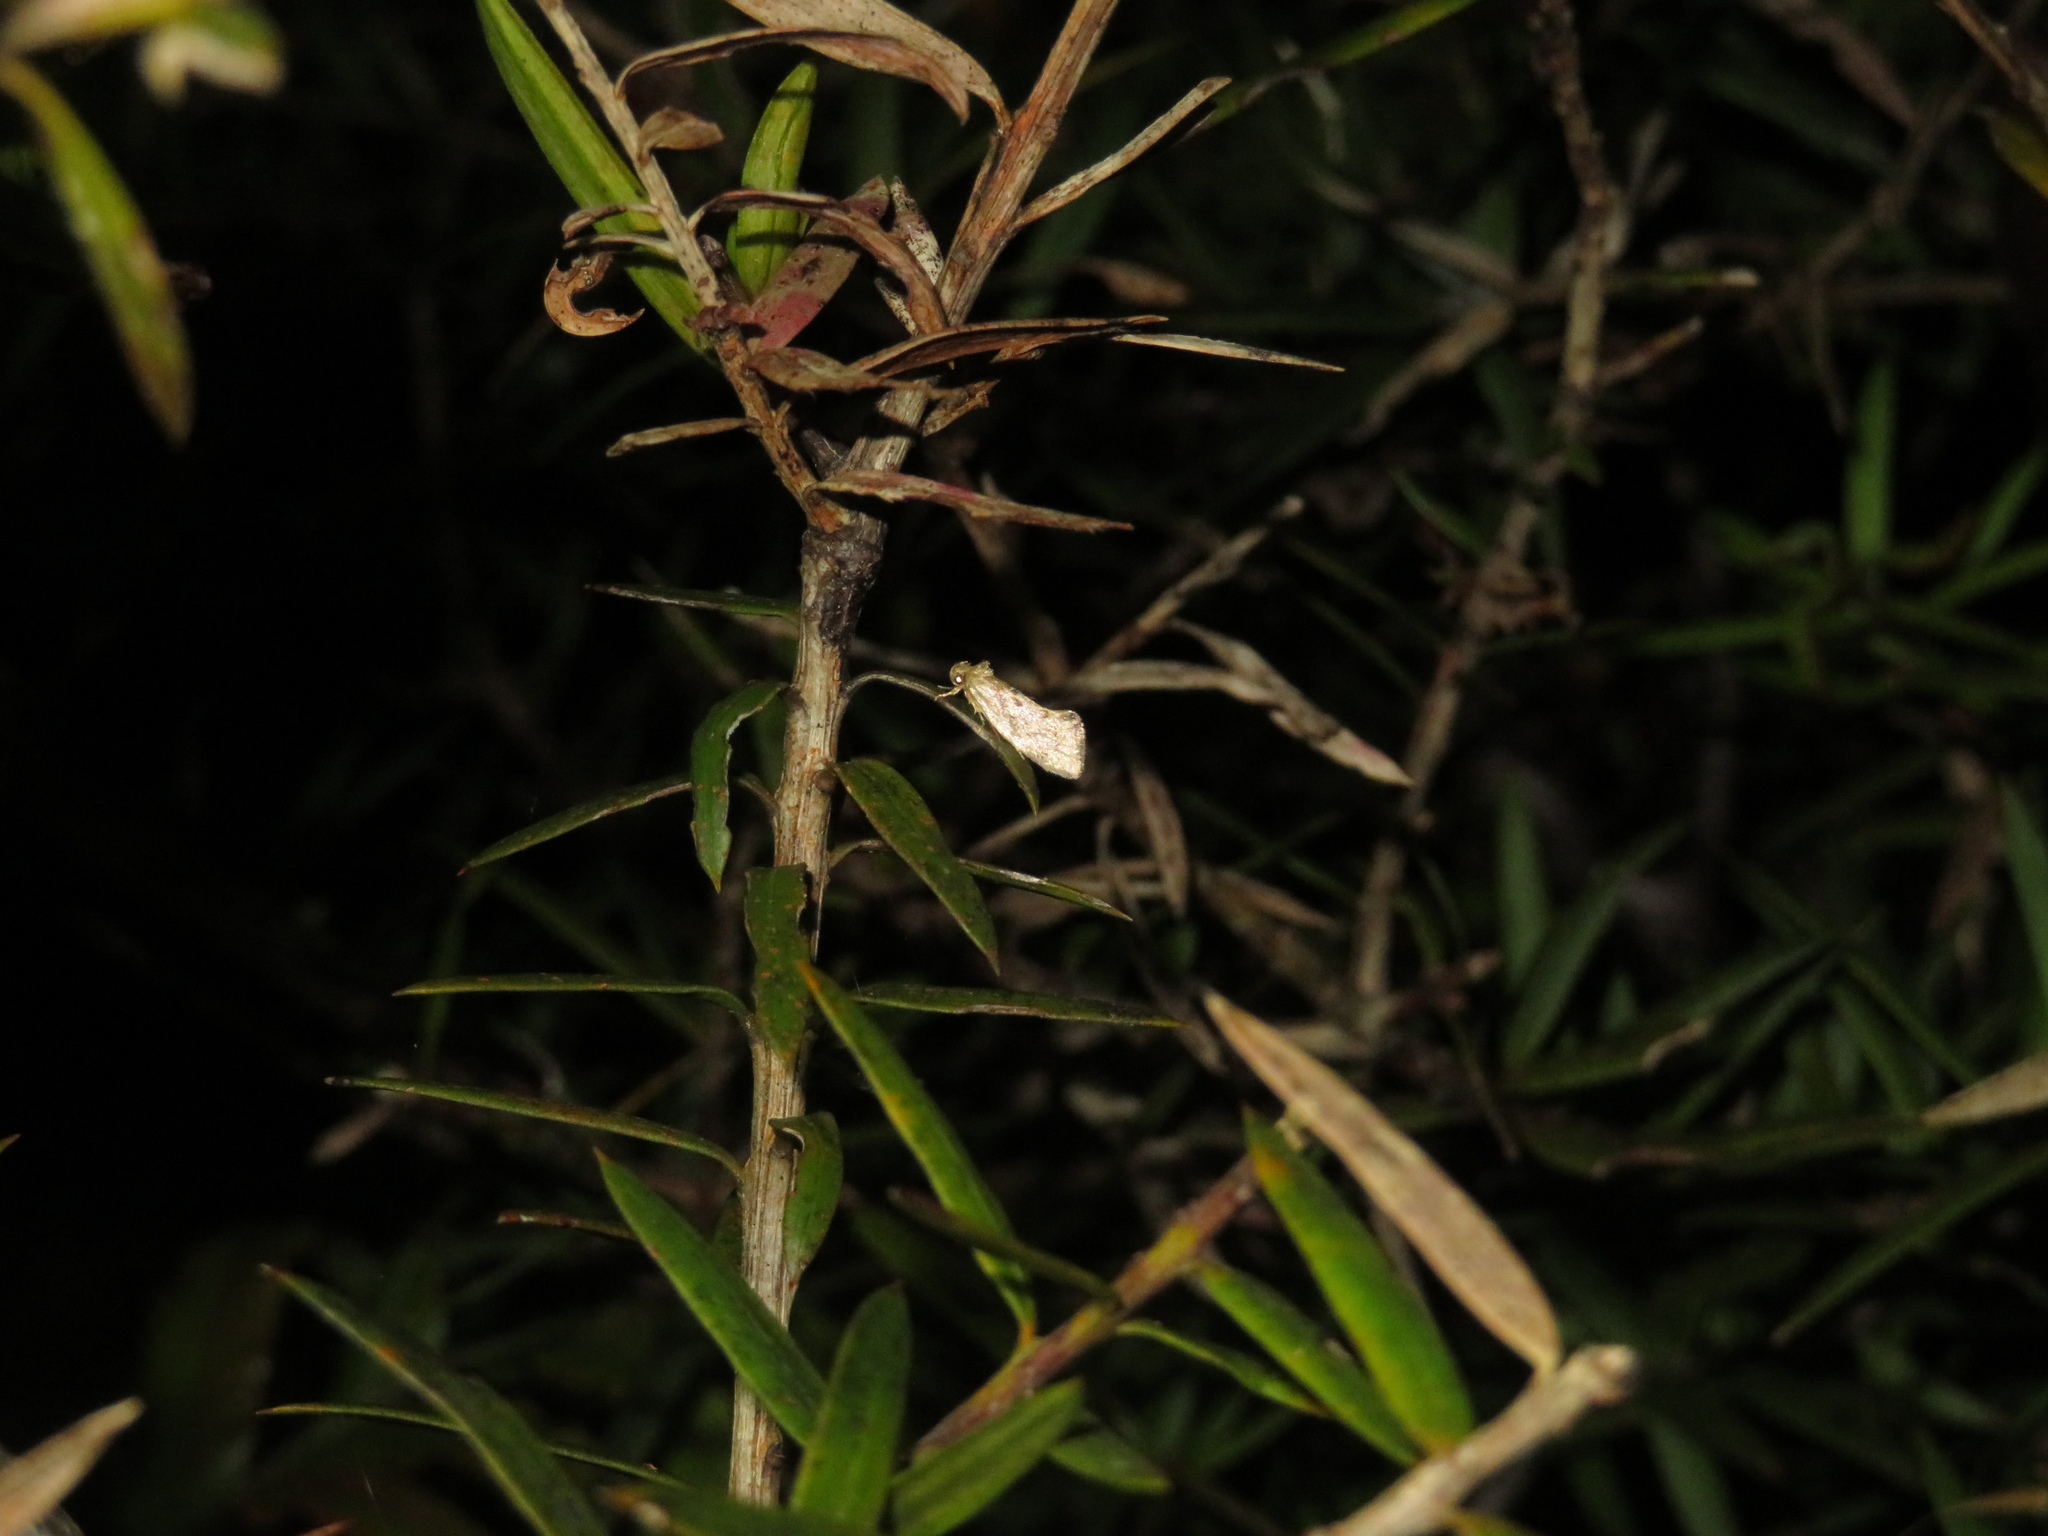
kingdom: Animalia
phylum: Arthropoda
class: Insecta
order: Lepidoptera
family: Oecophoridae
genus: Tingena
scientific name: Tingena
